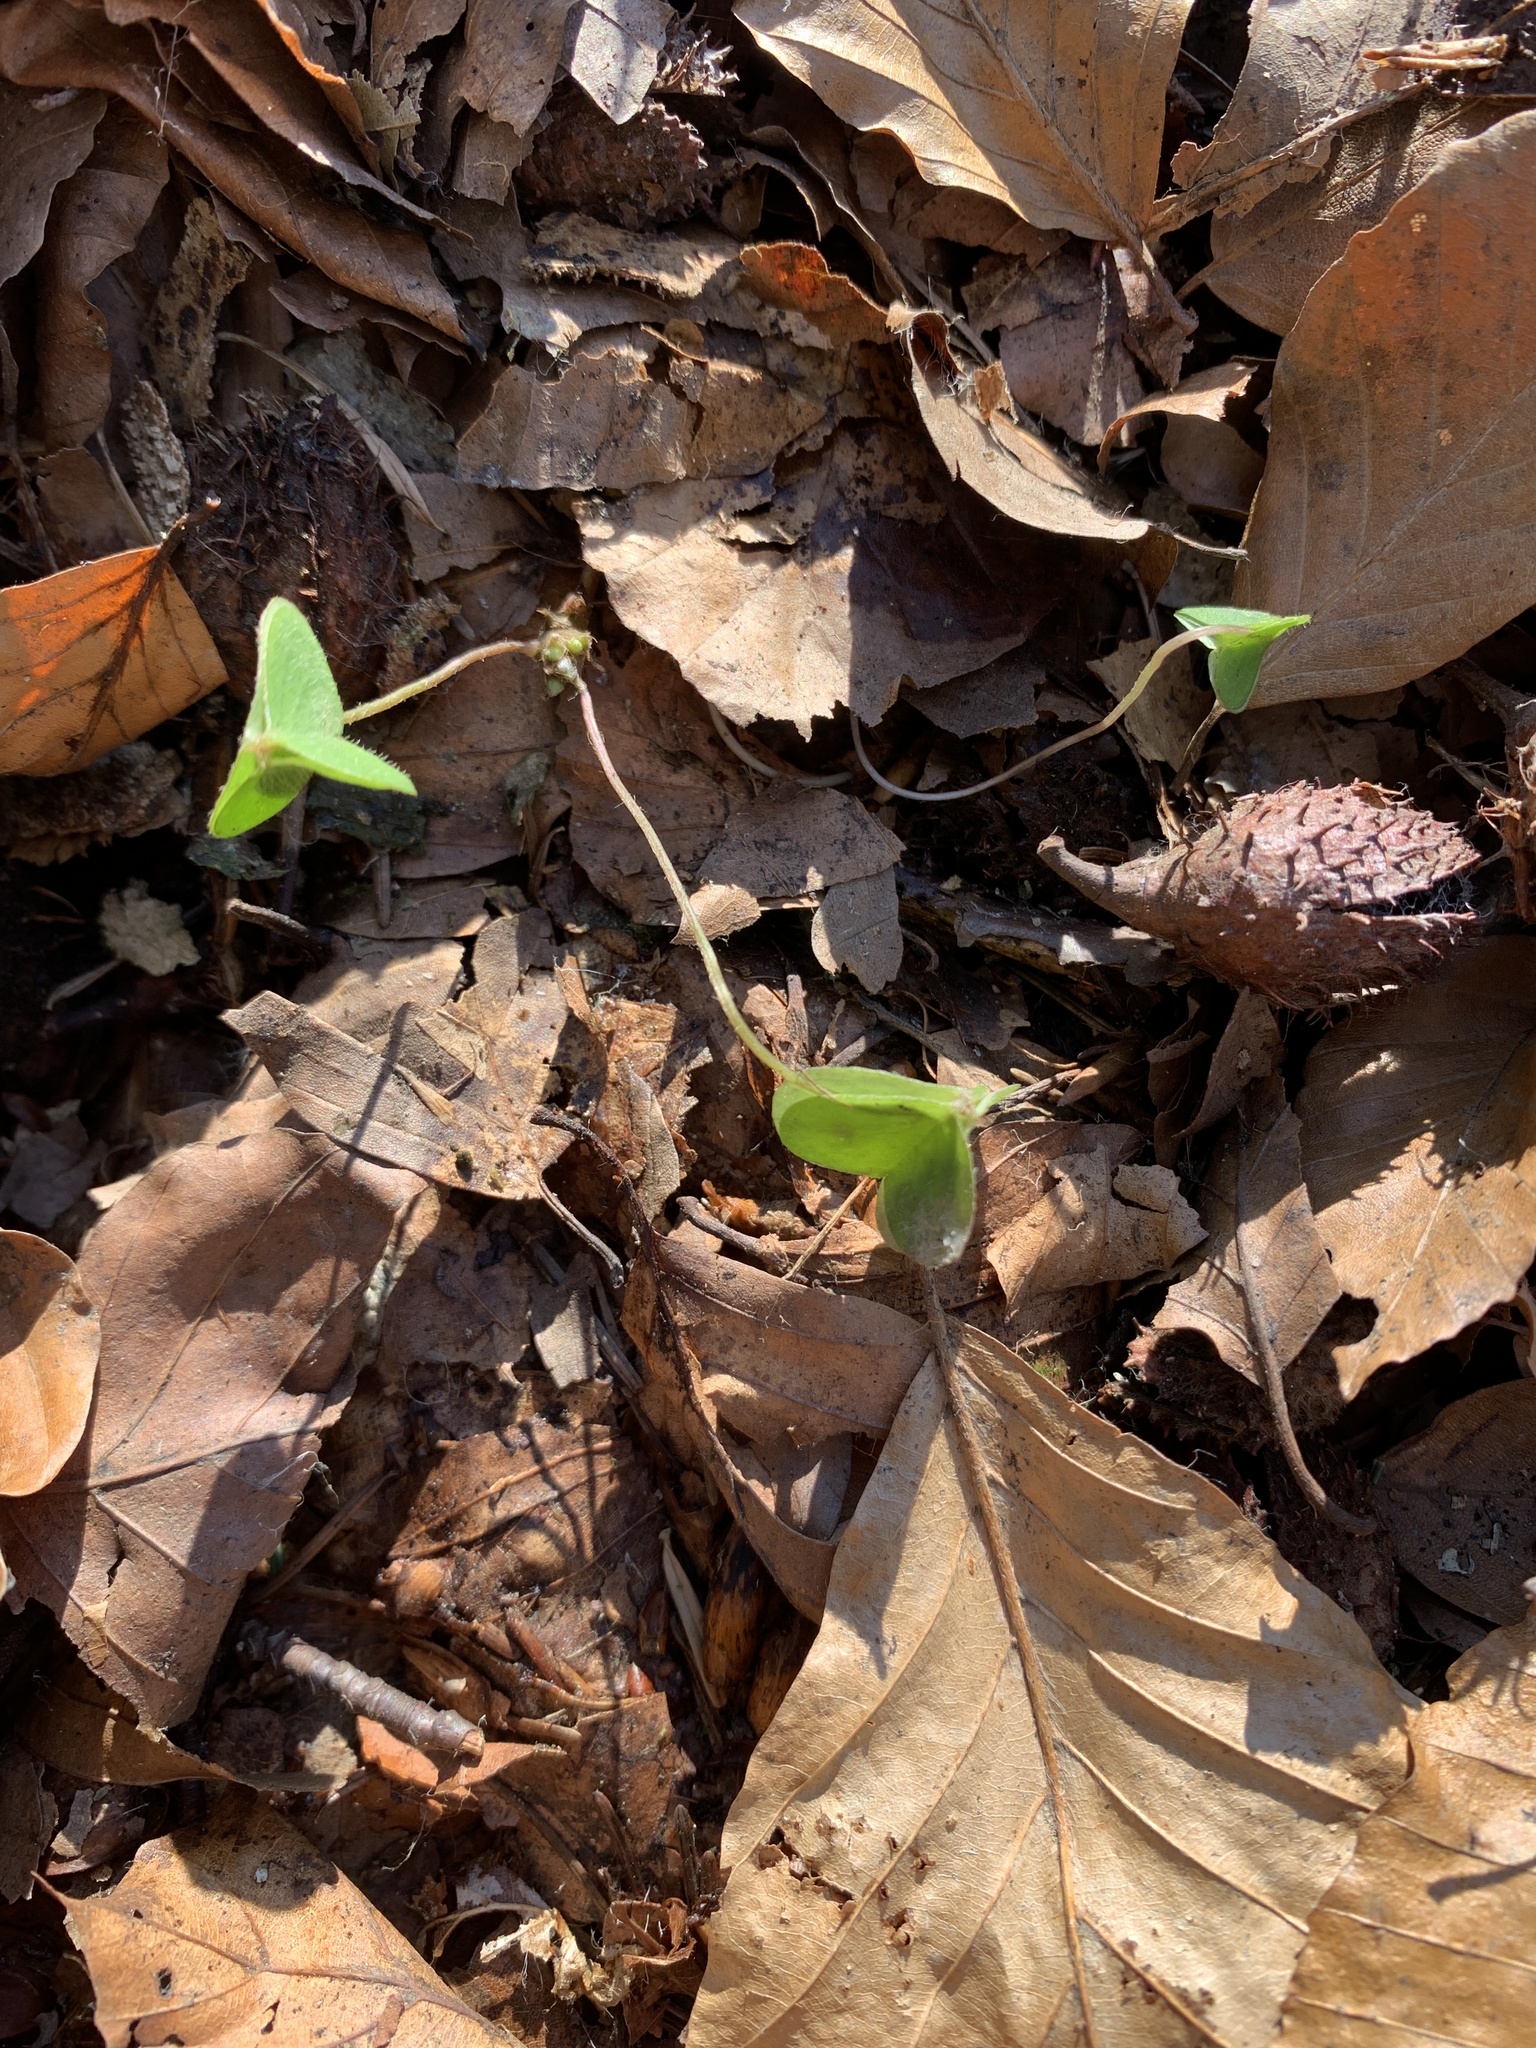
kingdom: Plantae
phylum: Tracheophyta
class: Magnoliopsida
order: Oxalidales
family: Oxalidaceae
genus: Oxalis
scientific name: Oxalis acetosella
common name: Wood-sorrel
